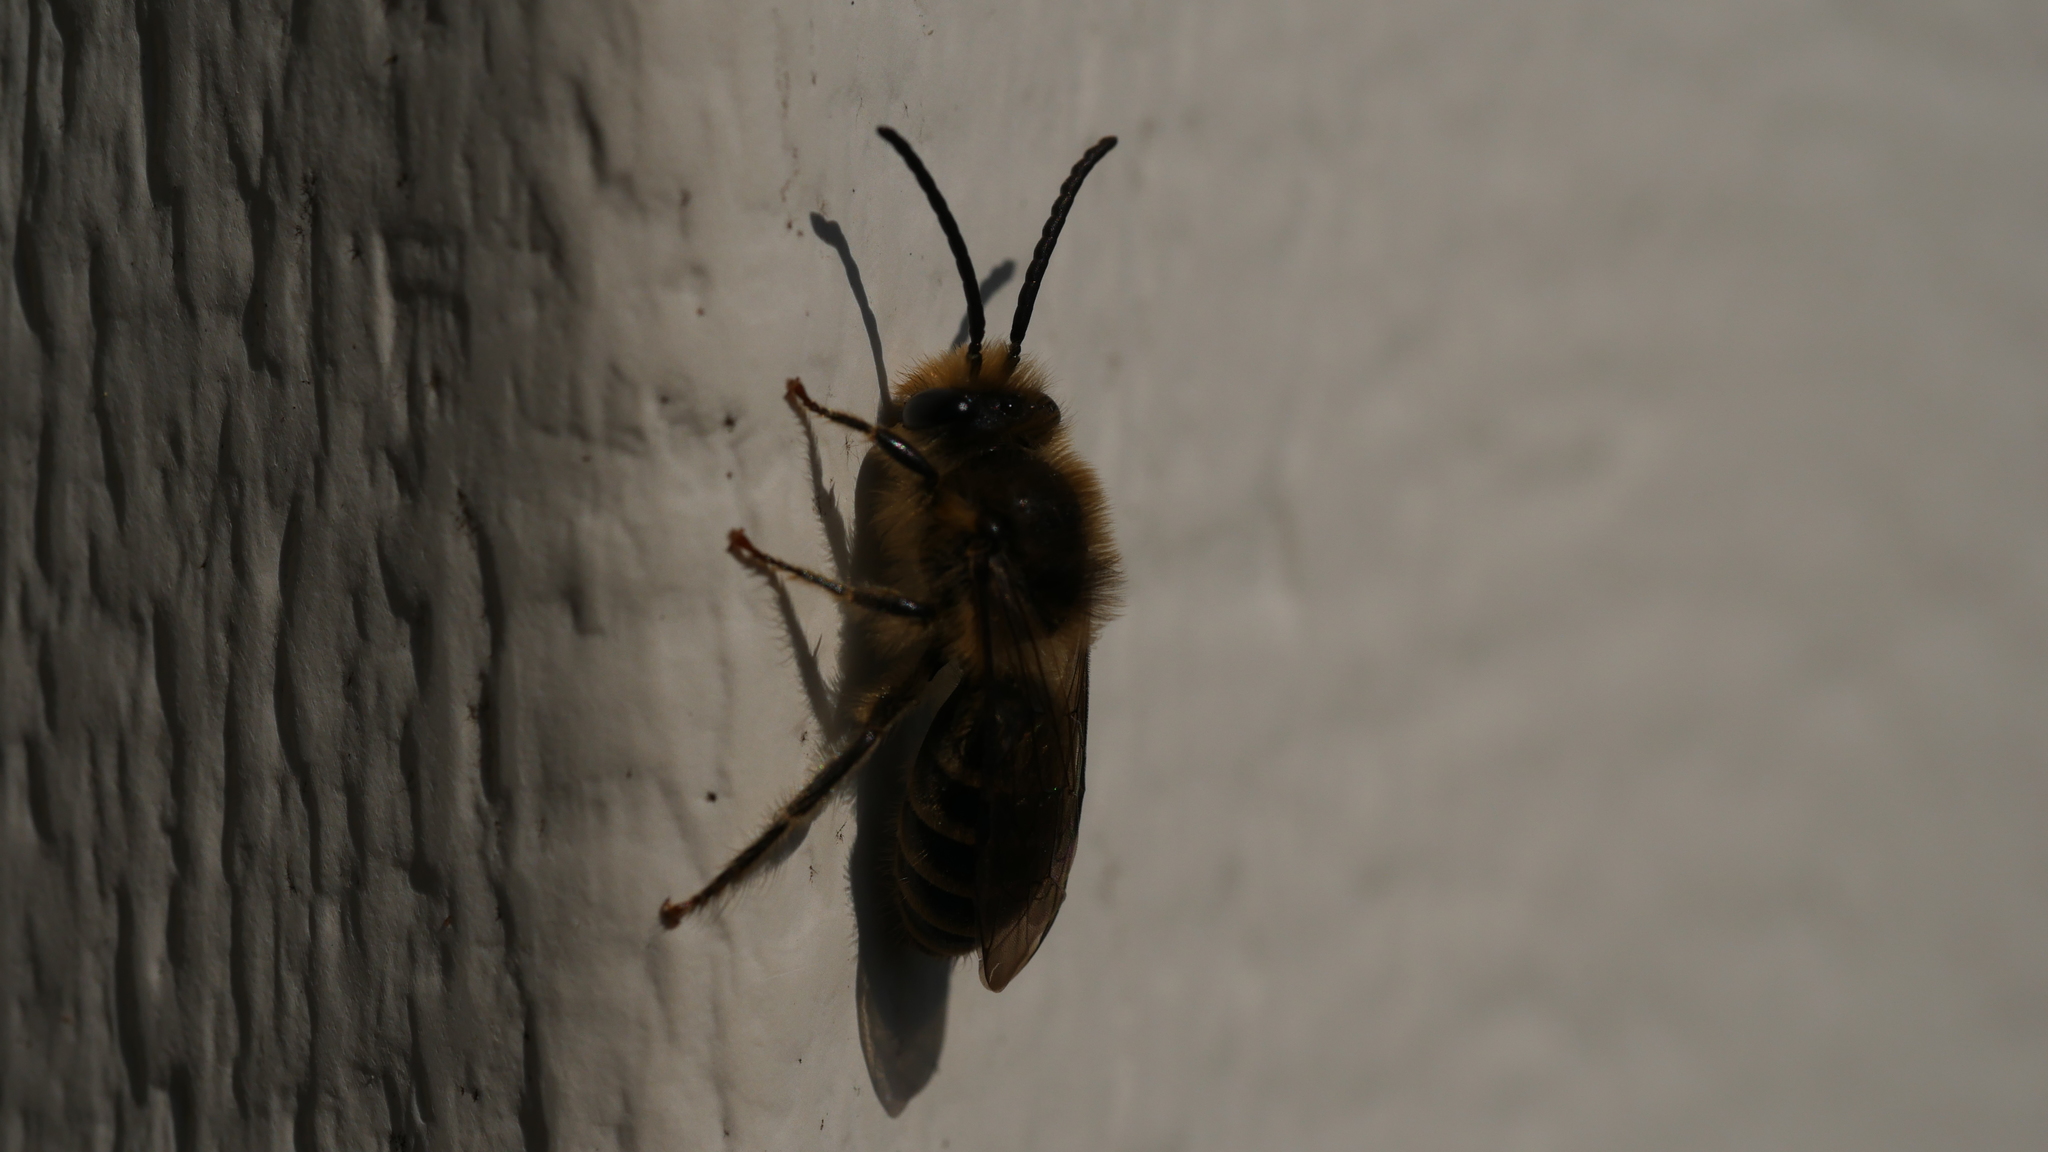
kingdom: Animalia
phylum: Arthropoda
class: Insecta
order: Hymenoptera
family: Colletidae
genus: Colletes
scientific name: Colletes inaequalis
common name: Unequal cellophane bee
